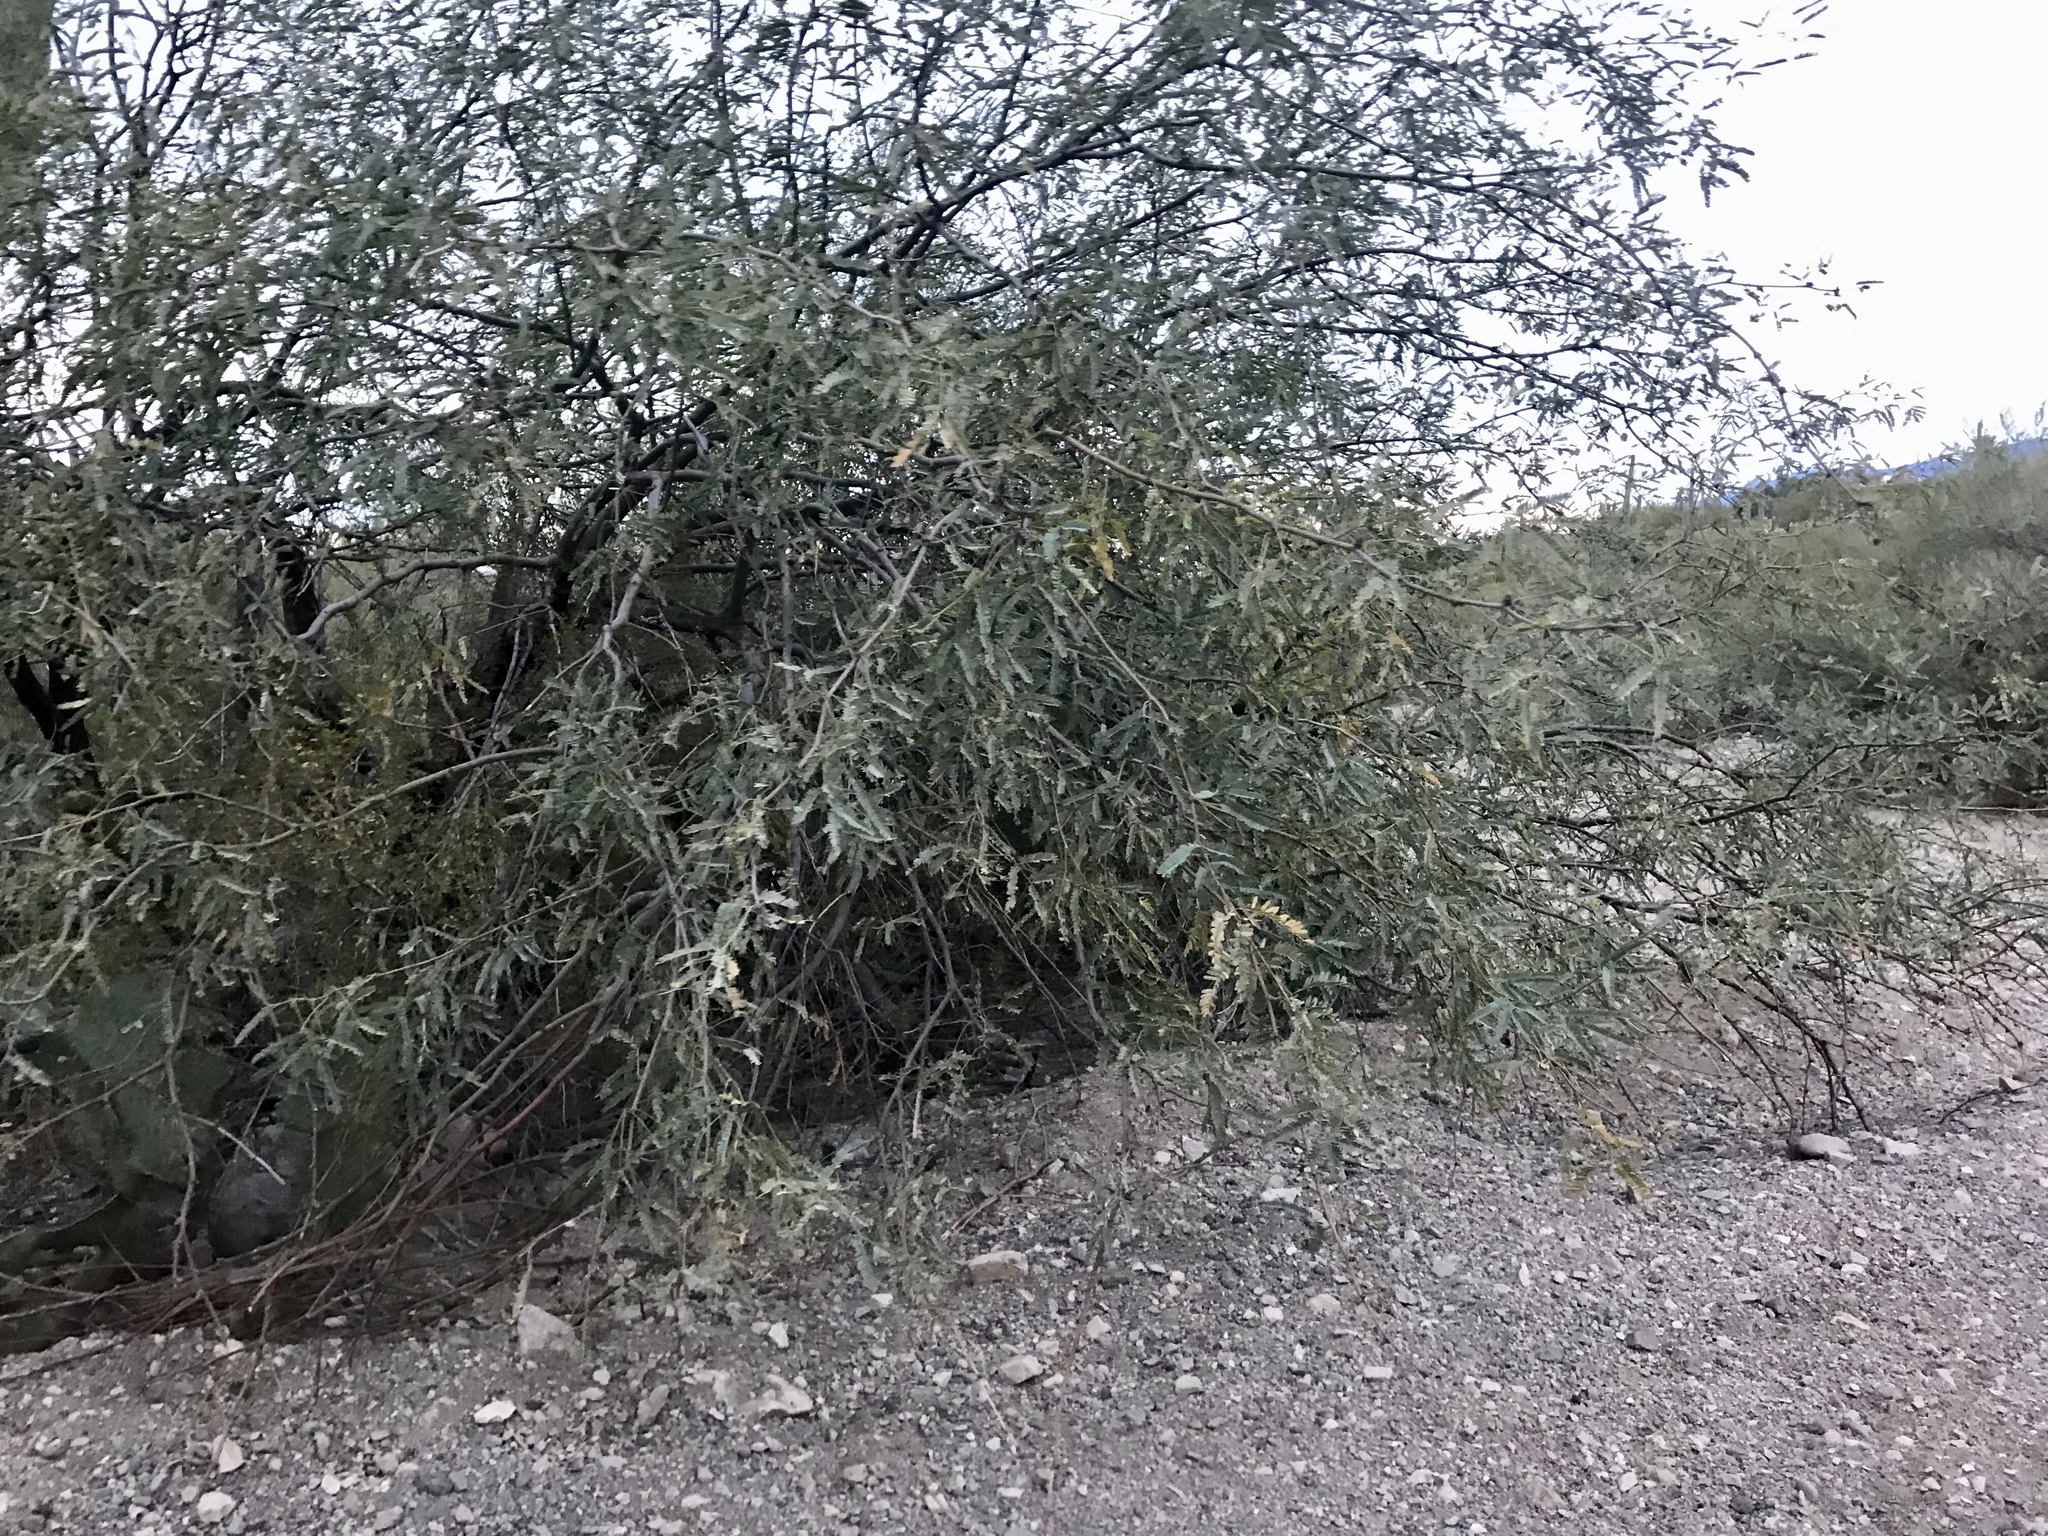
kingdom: Plantae
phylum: Tracheophyta
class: Magnoliopsida
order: Fabales
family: Fabaceae
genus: Prosopis
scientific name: Prosopis velutina
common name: Velvet mesquite
